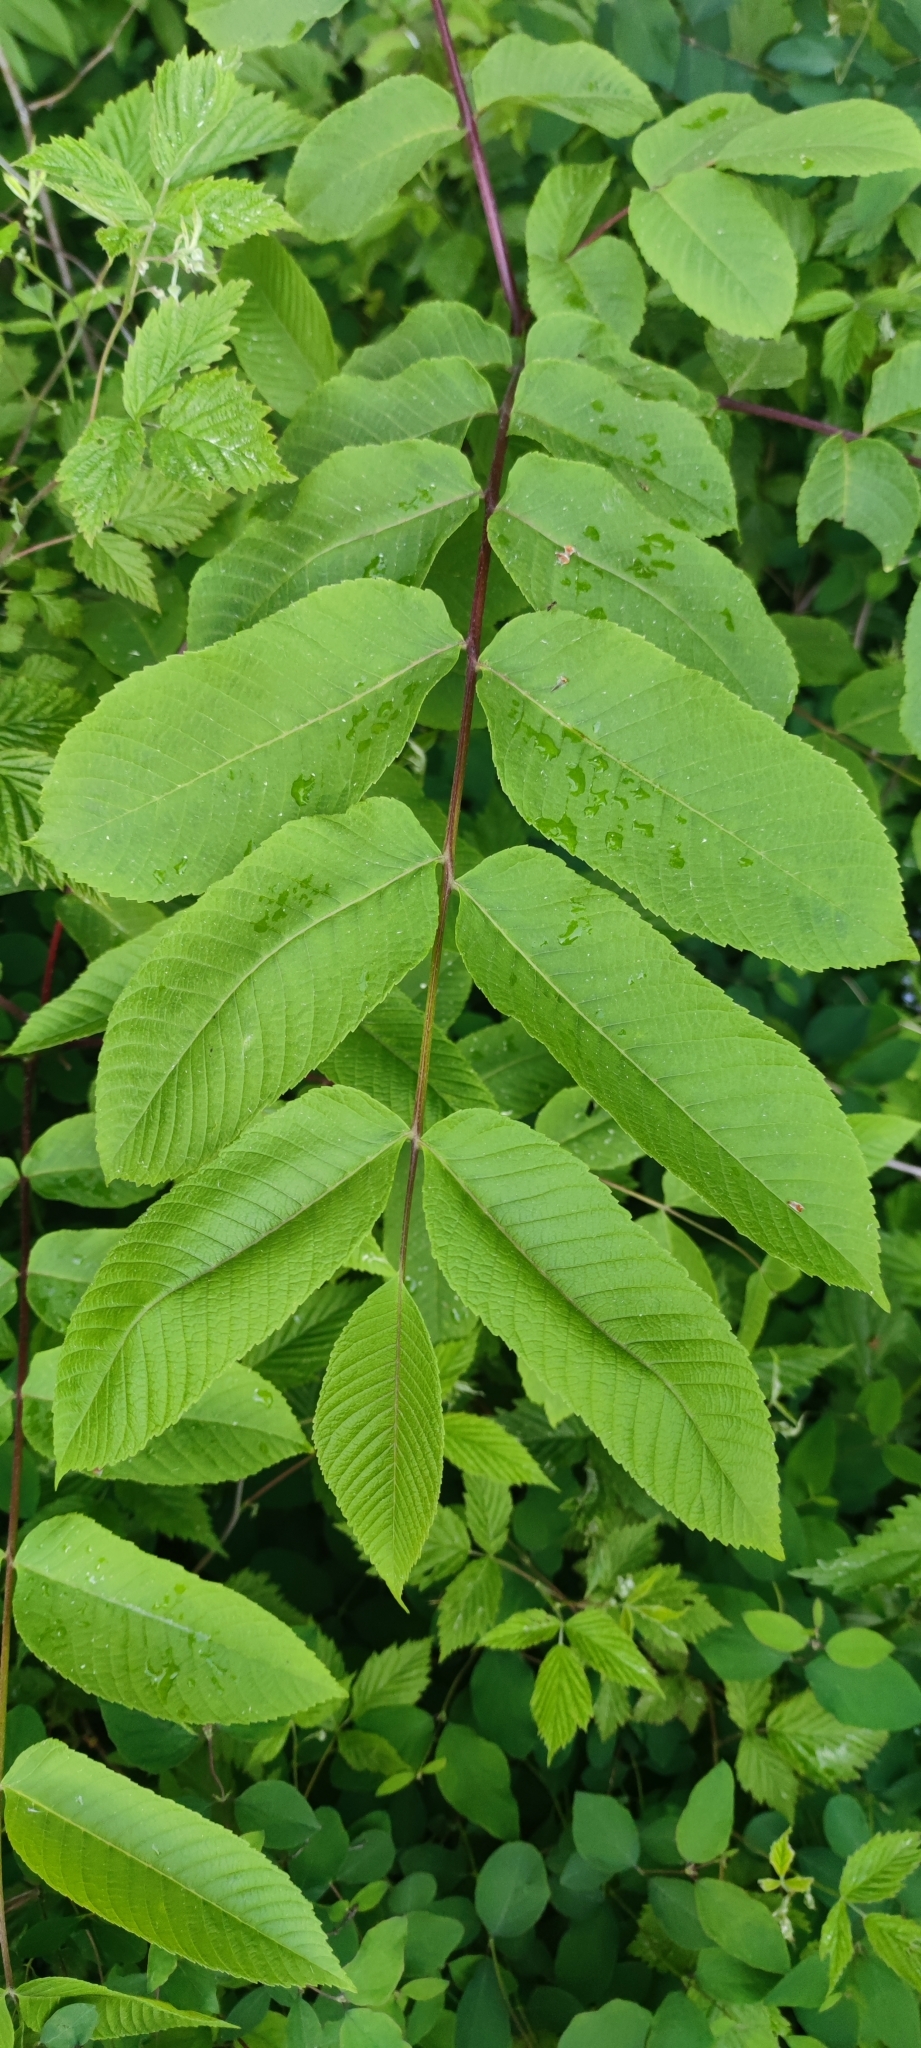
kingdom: Plantae
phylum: Tracheophyta
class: Magnoliopsida
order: Fagales
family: Juglandaceae
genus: Juglans
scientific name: Juglans mandshurica
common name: Manchurian walnut
